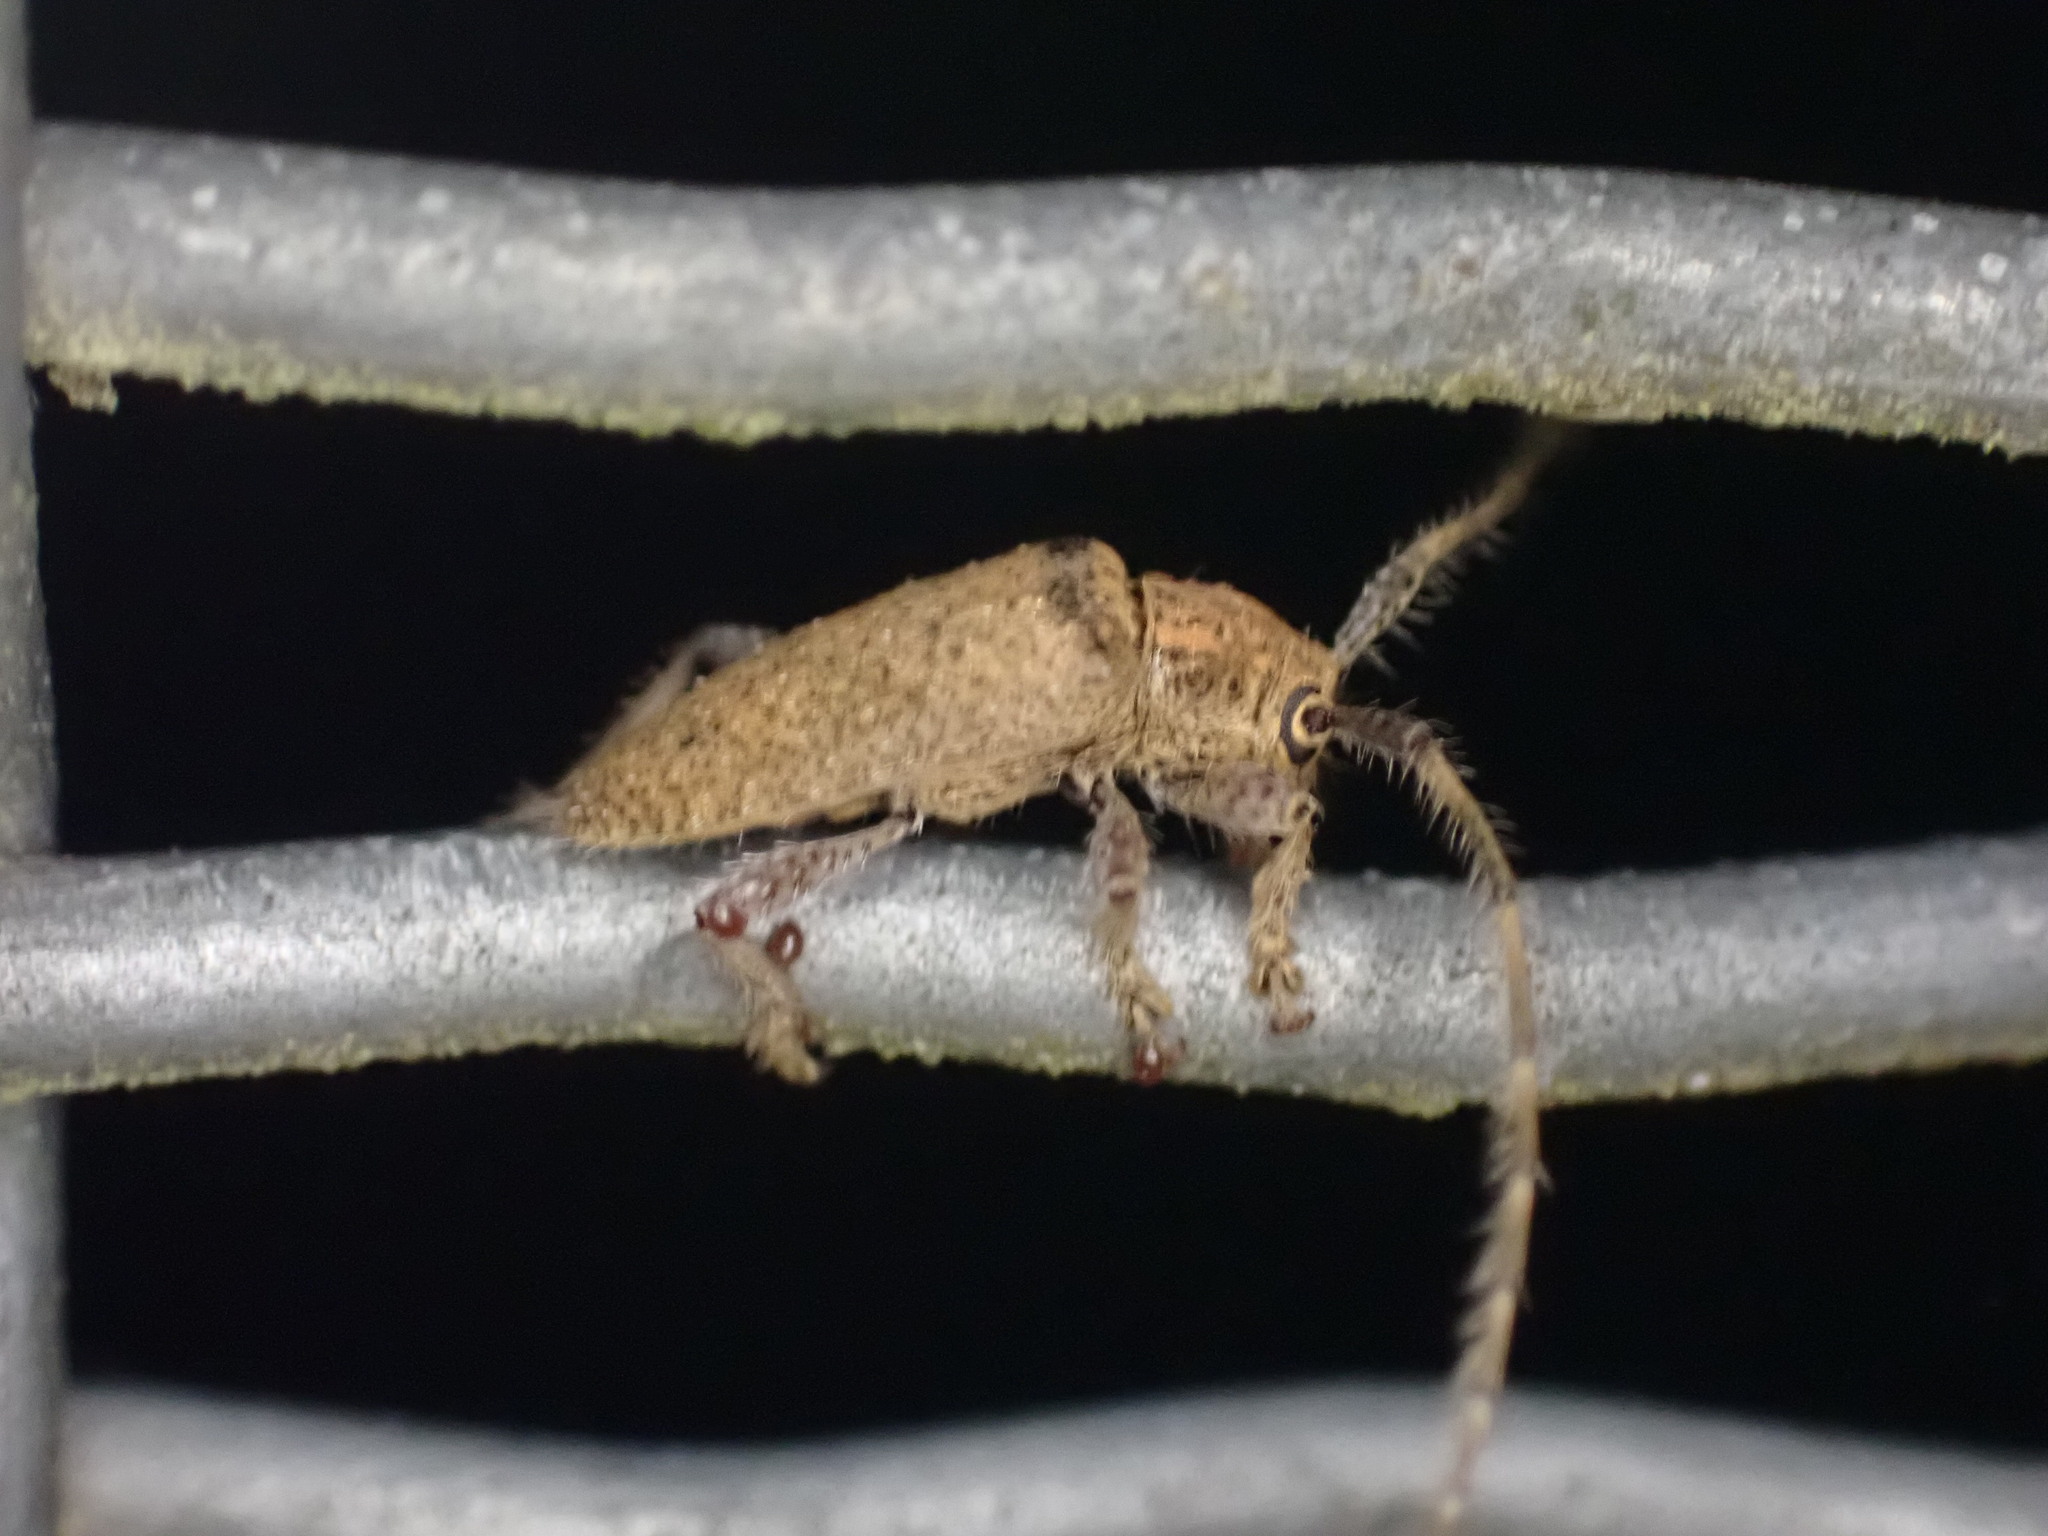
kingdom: Animalia
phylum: Arthropoda
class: Insecta
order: Coleoptera
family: Cerambycidae
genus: Polyacanthia
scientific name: Polyacanthia flavipes
